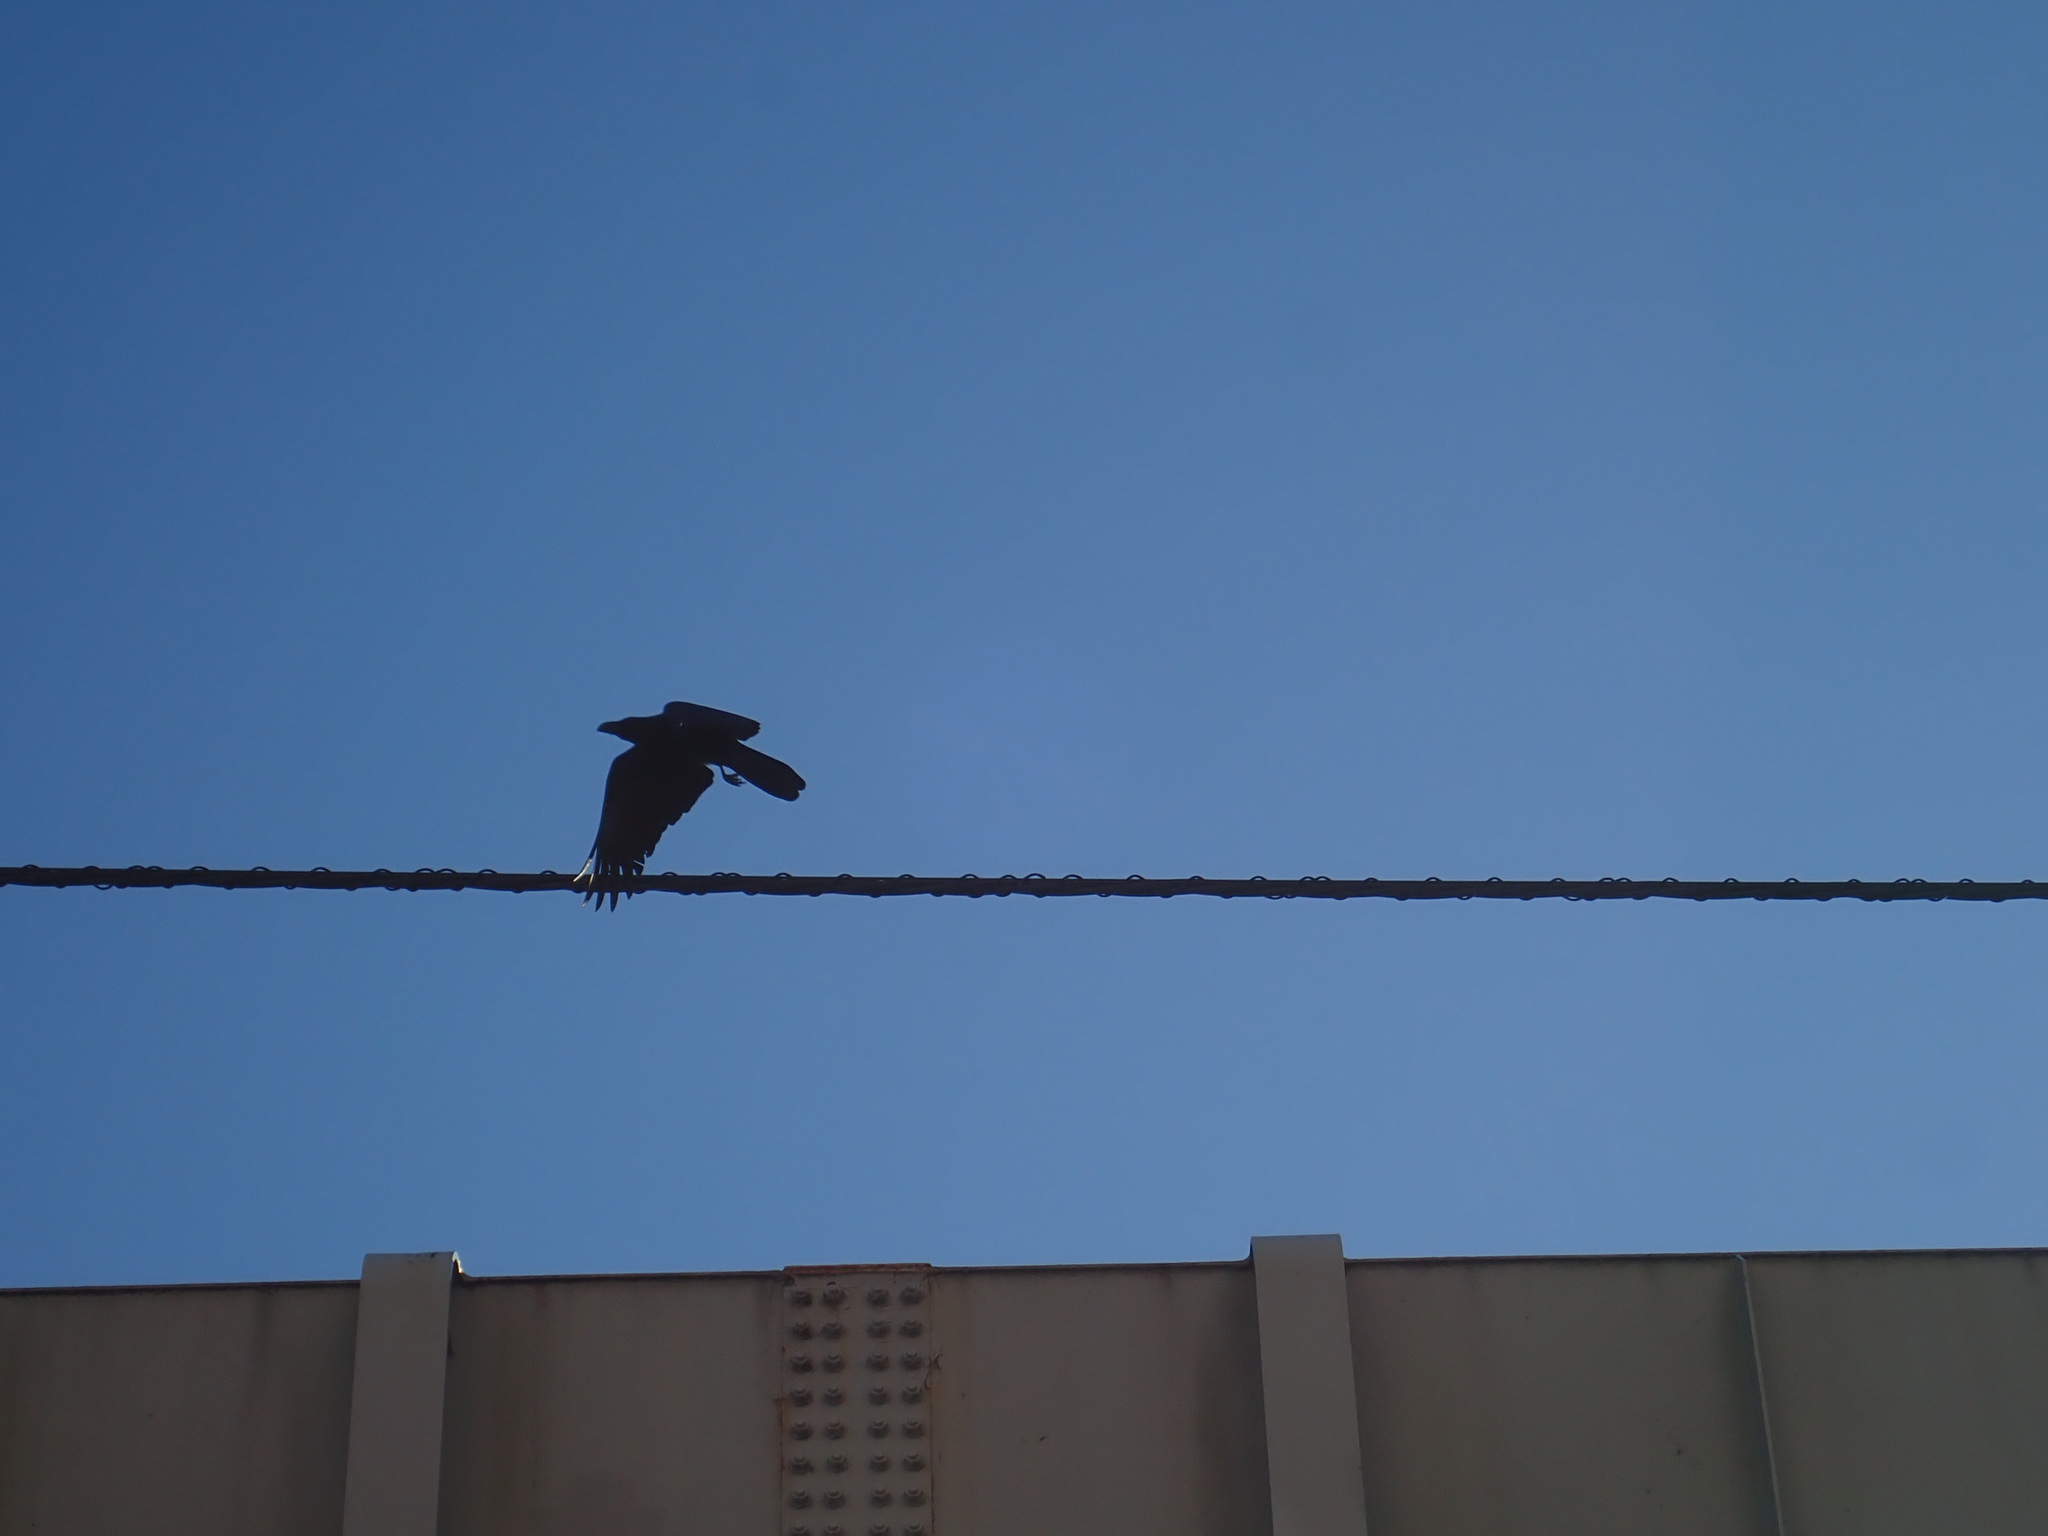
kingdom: Animalia
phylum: Chordata
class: Aves
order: Passeriformes
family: Corvidae
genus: Corvus
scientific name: Corvus macrorhynchos
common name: Large-billed crow
